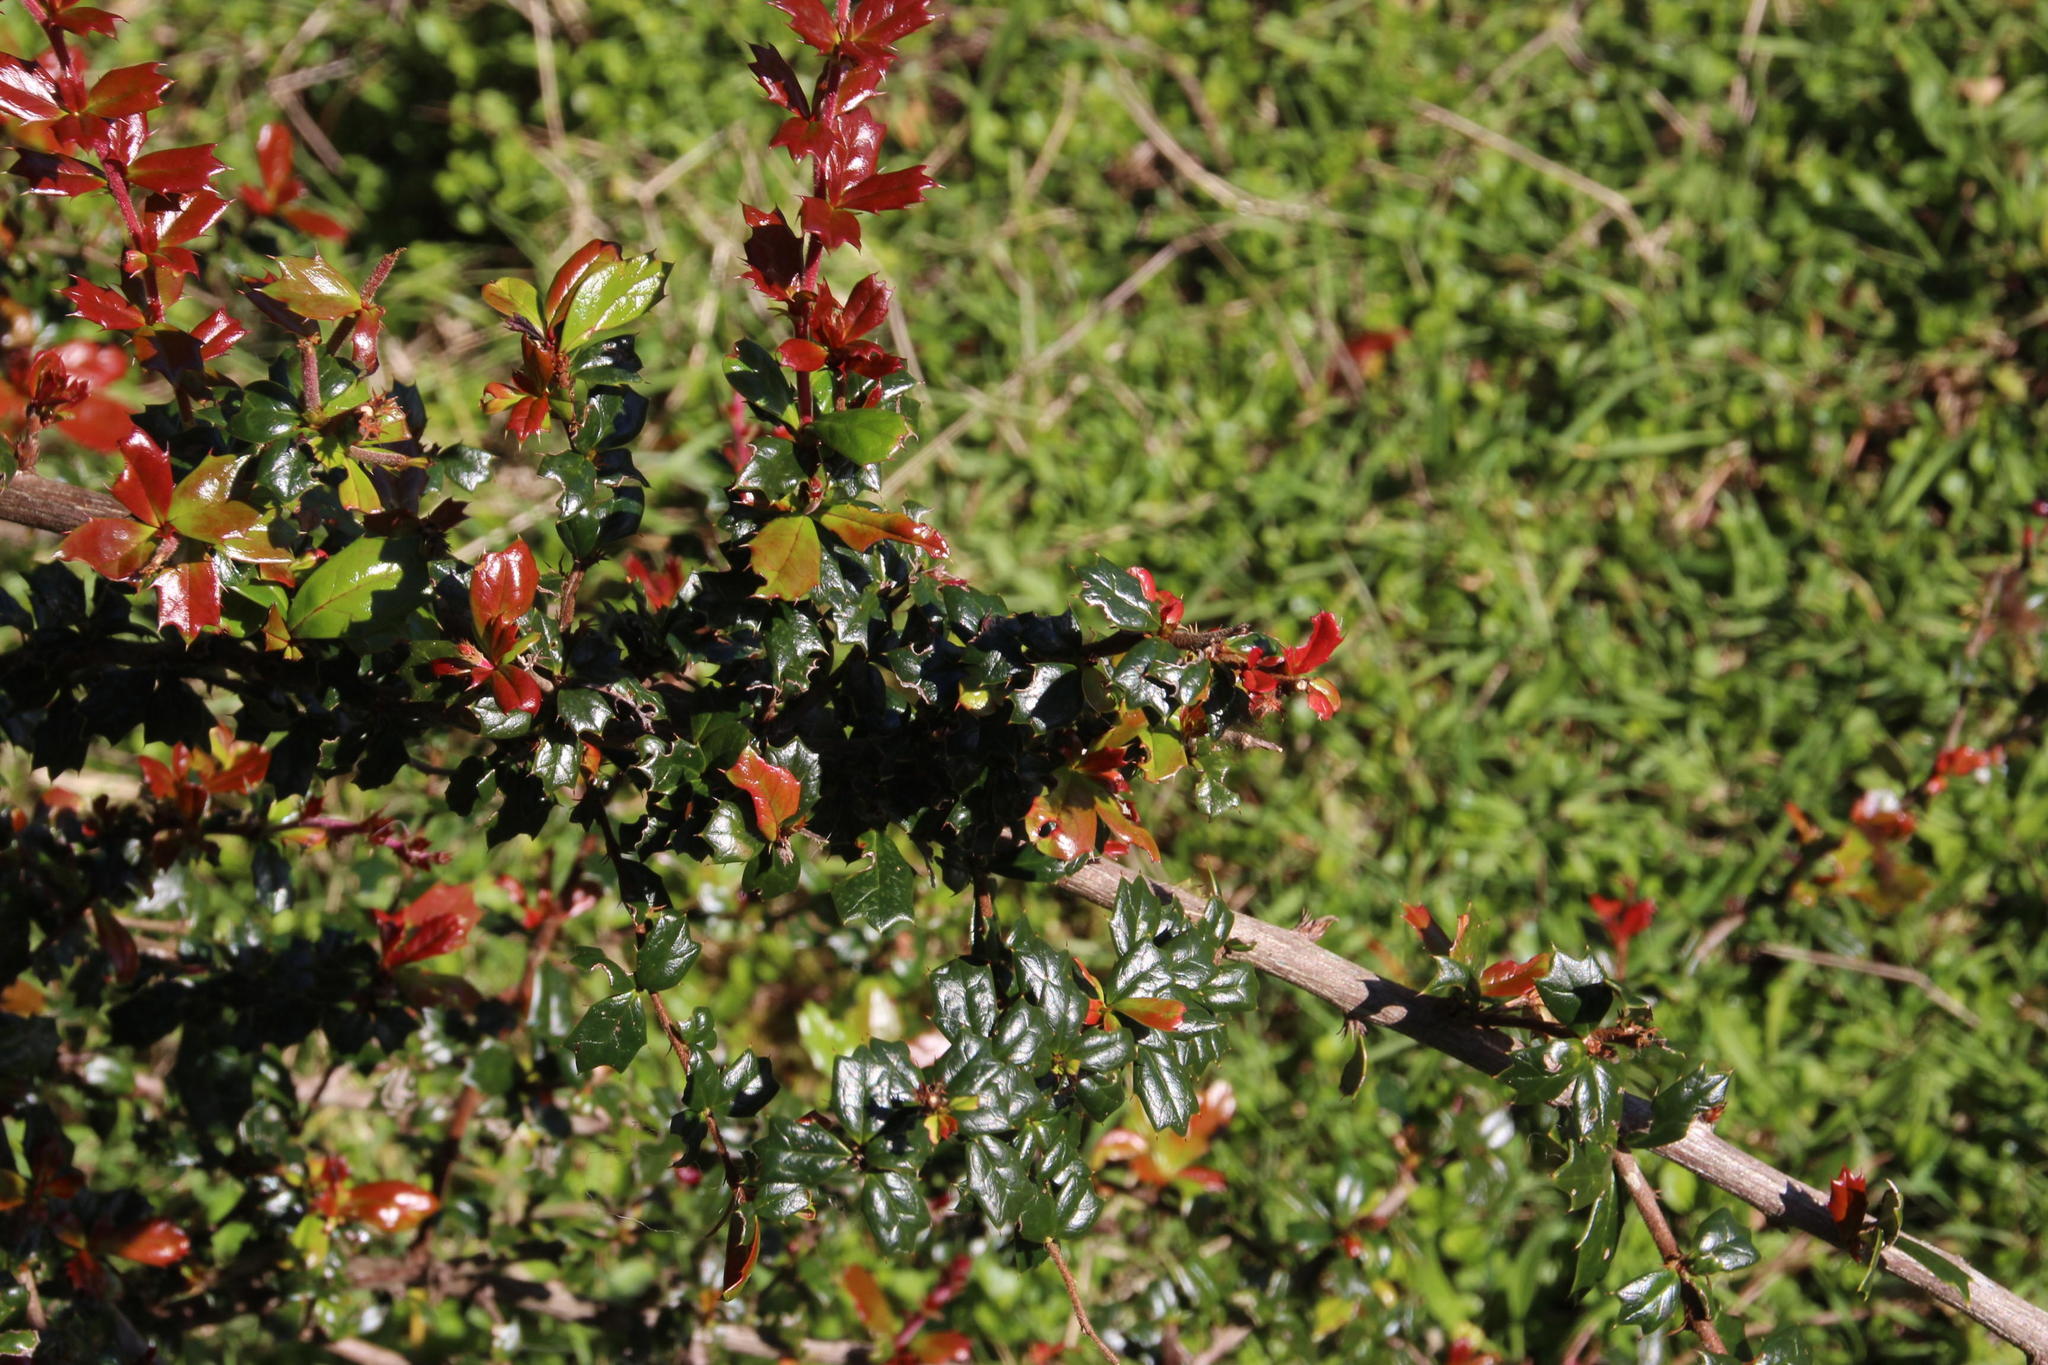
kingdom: Plantae
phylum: Tracheophyta
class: Magnoliopsida
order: Ranunculales
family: Berberidaceae
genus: Berberis
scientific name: Berberis darwinii
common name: Darwin's barberry
